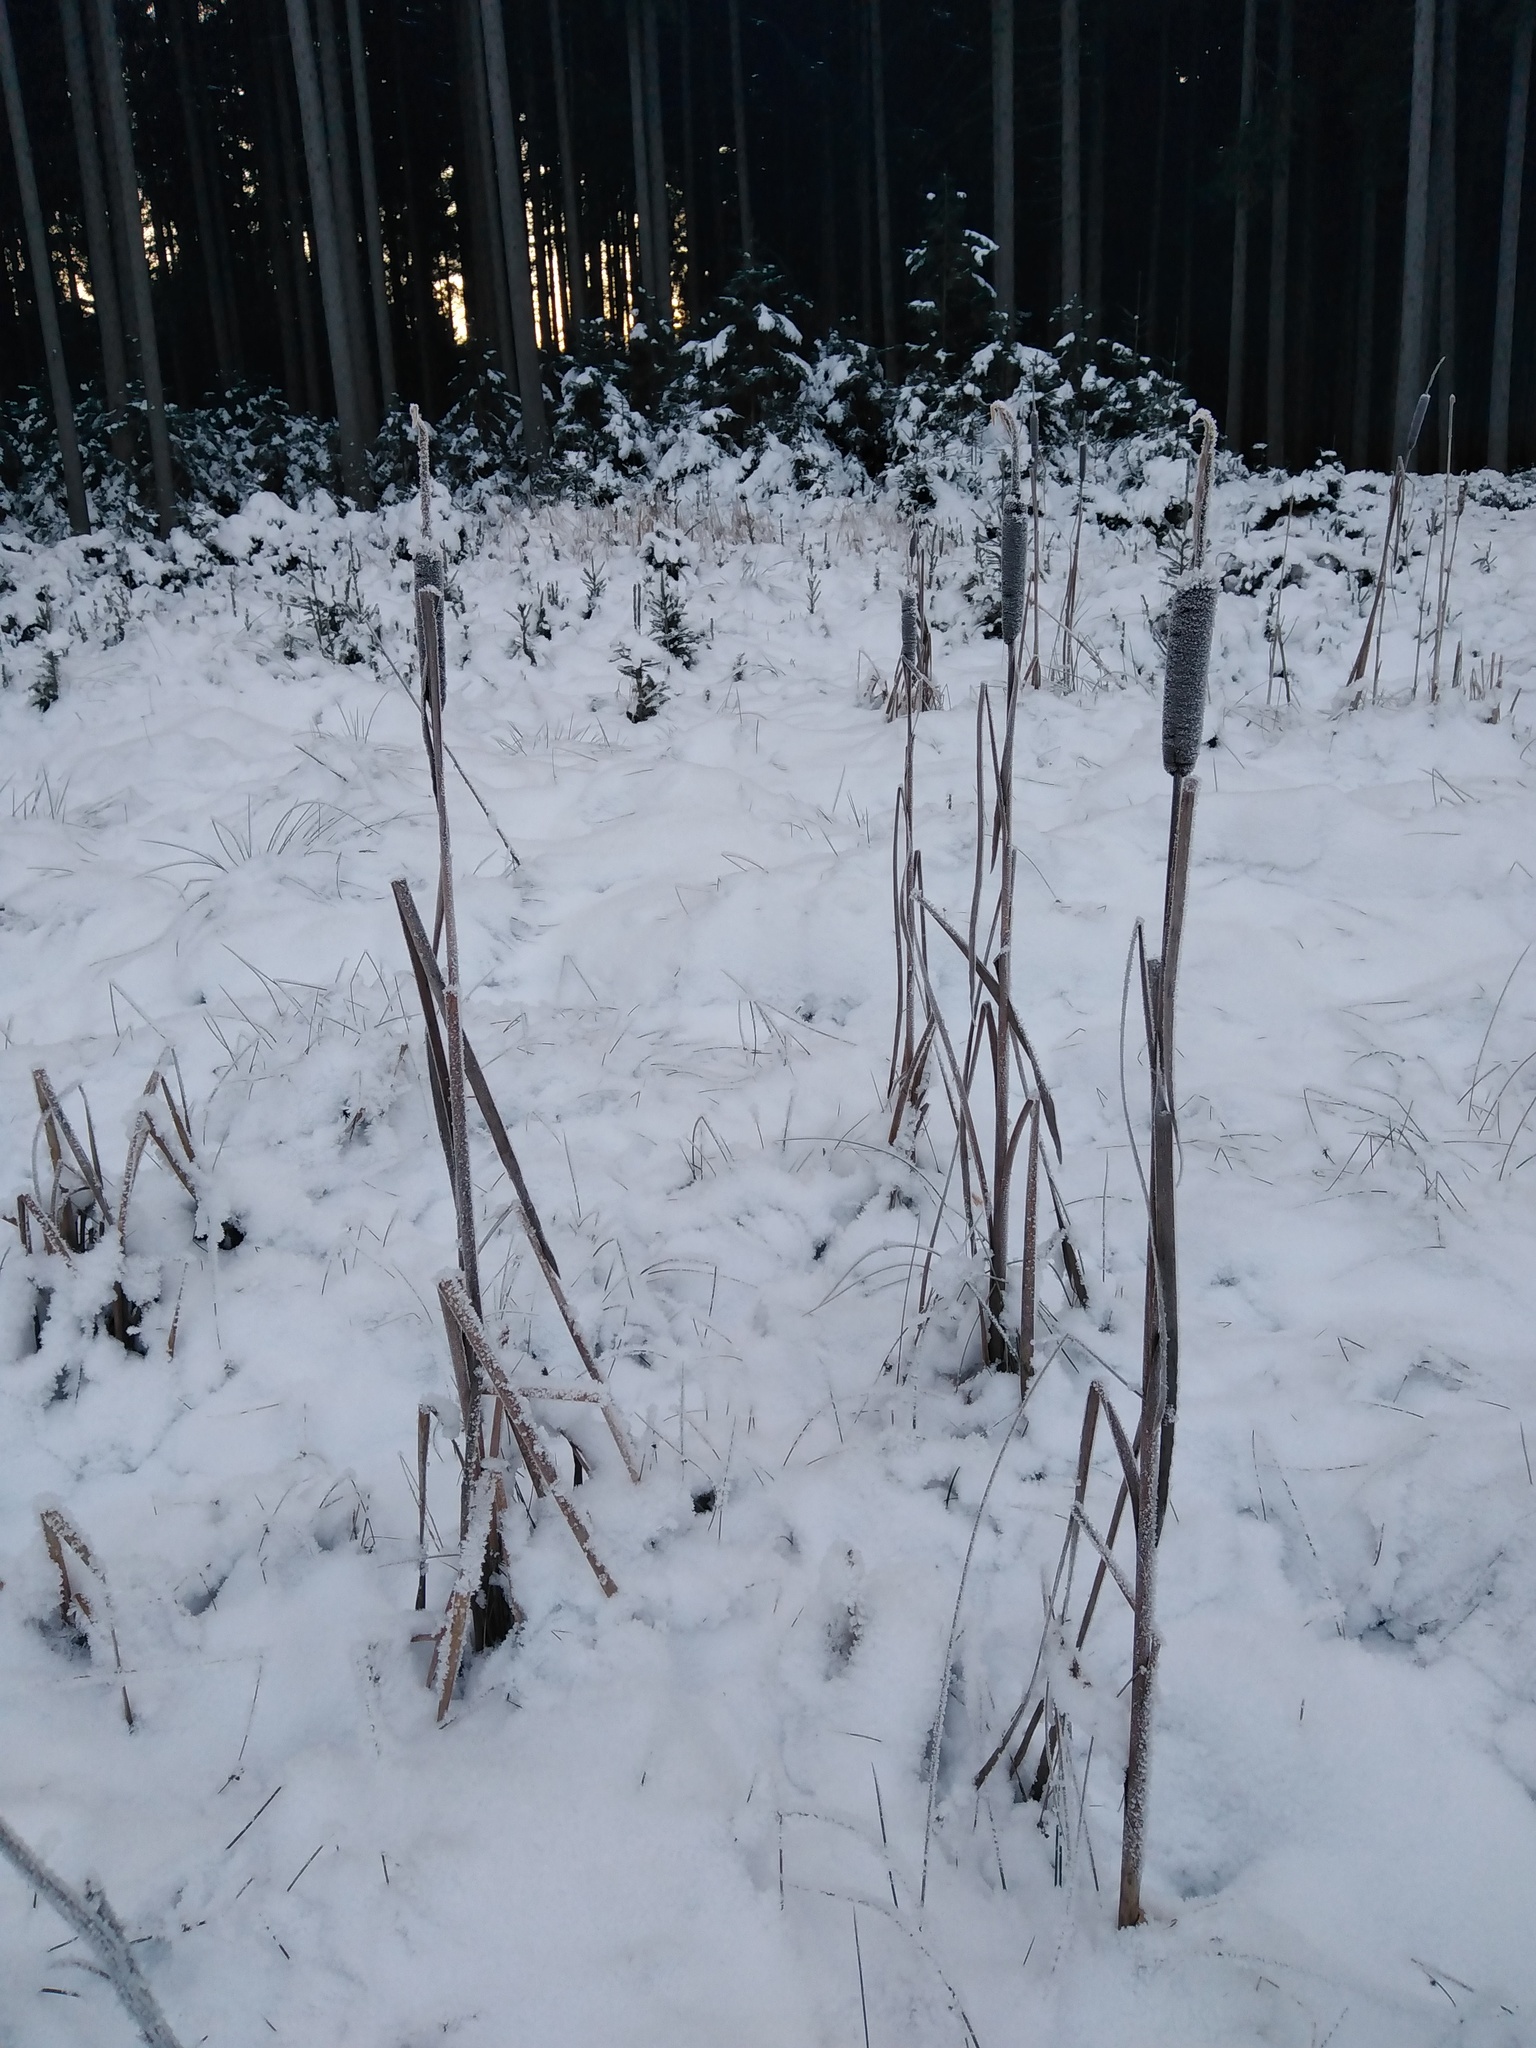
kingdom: Plantae
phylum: Tracheophyta
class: Liliopsida
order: Poales
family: Typhaceae
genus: Typha
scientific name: Typha latifolia
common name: Broadleaf cattail
